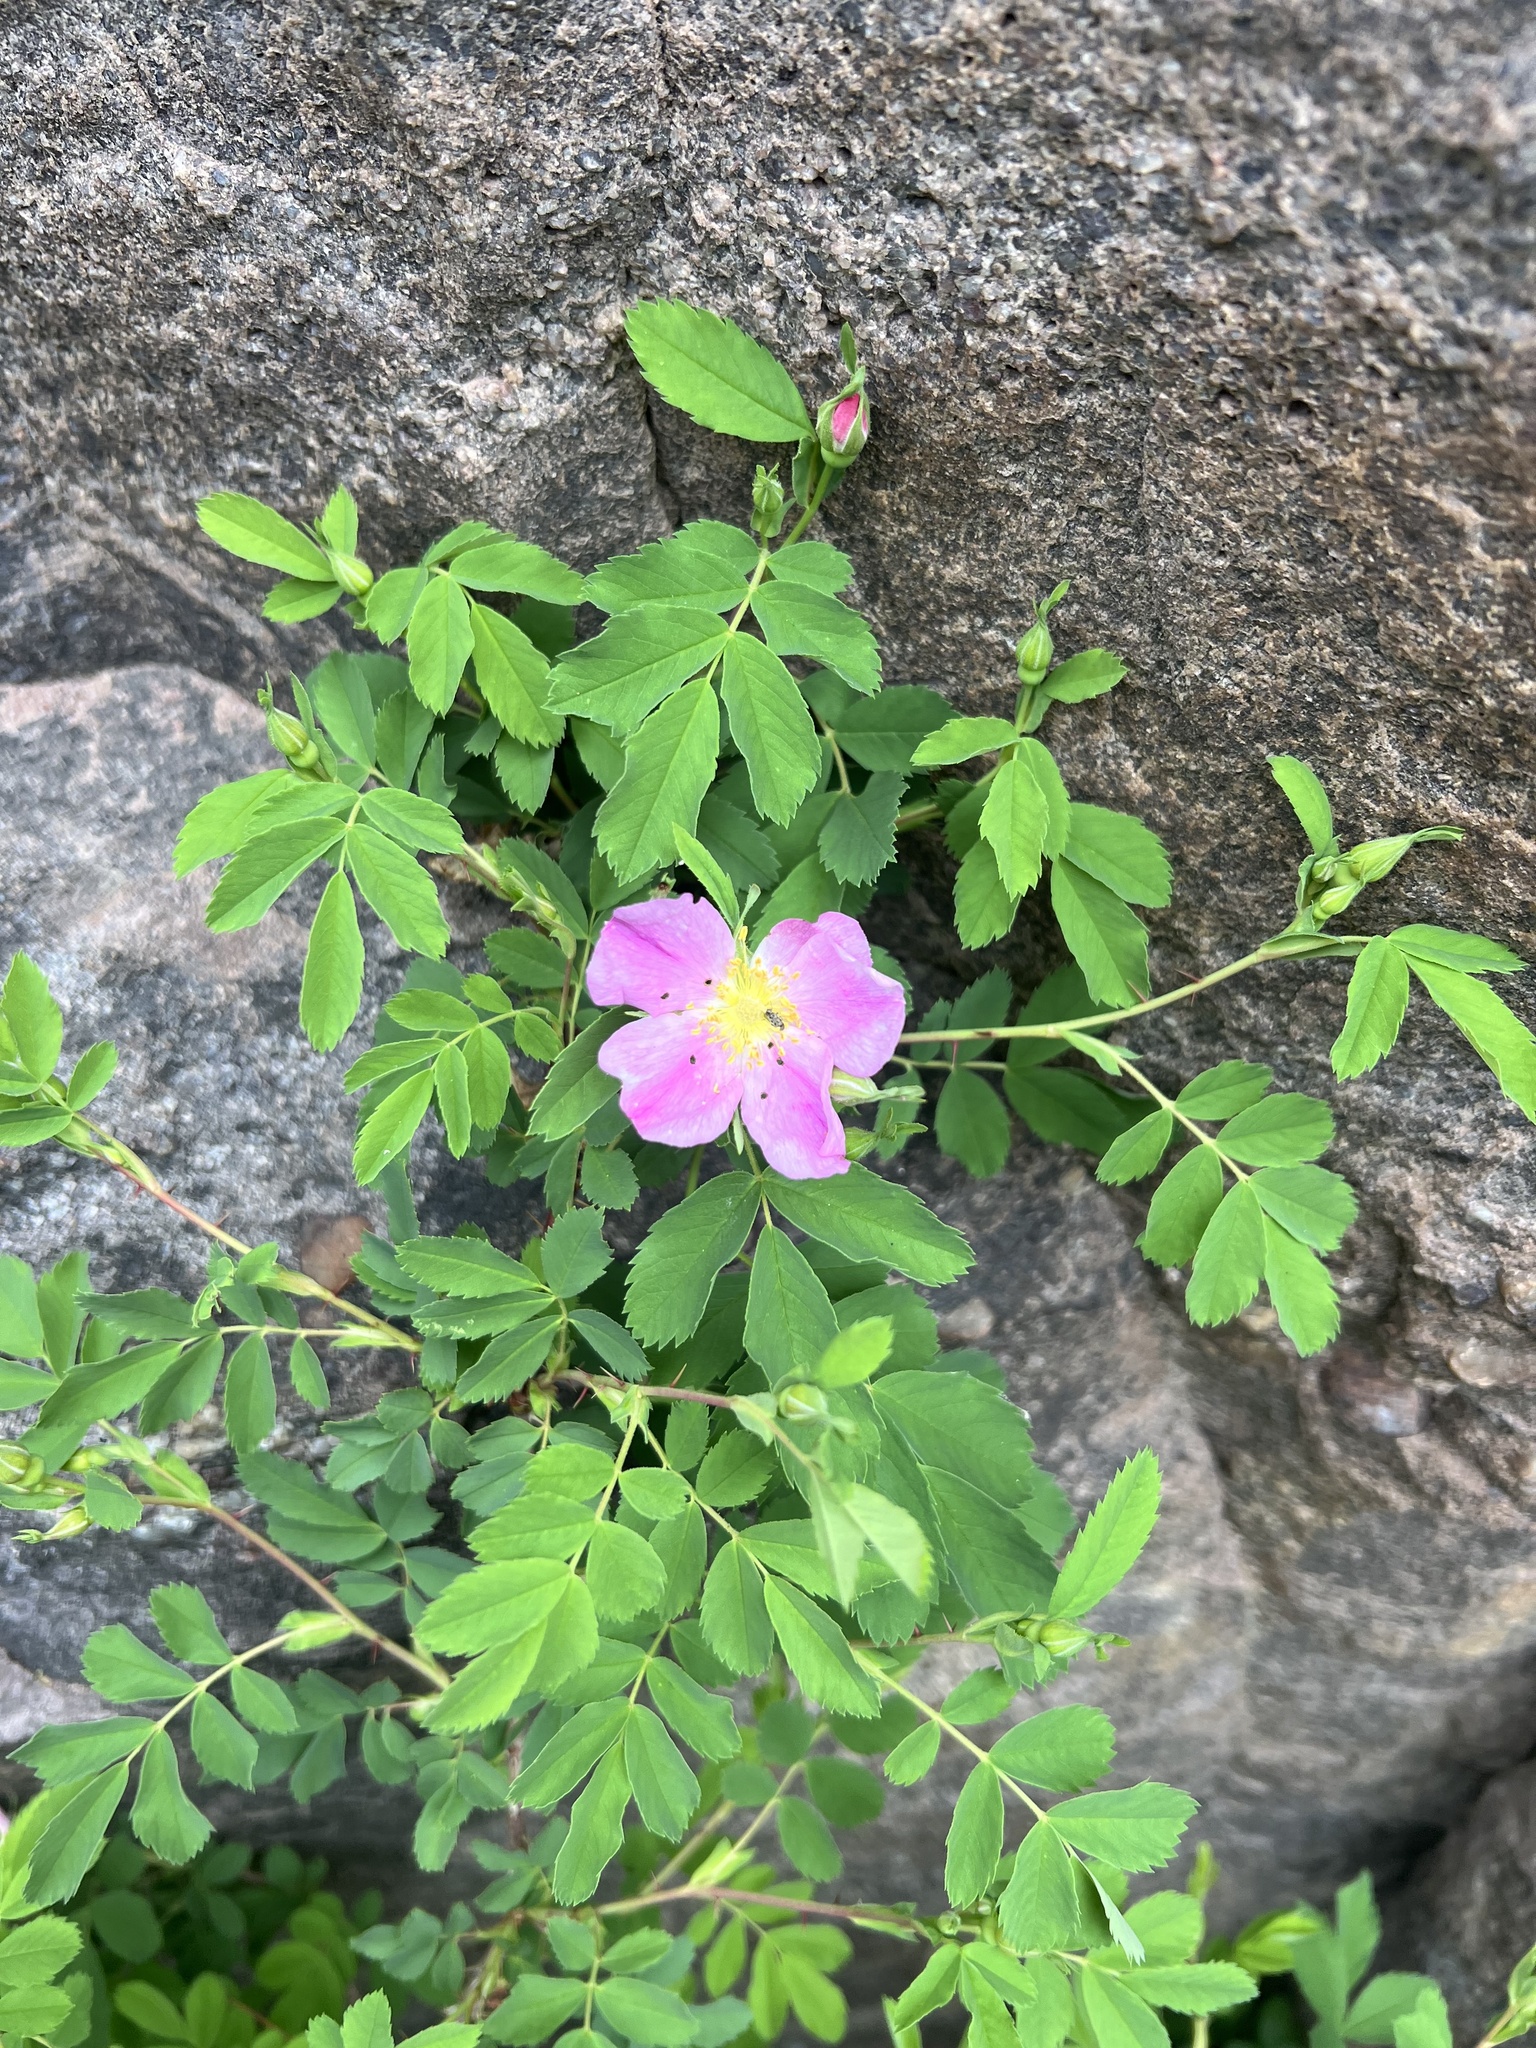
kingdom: Plantae
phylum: Tracheophyta
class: Magnoliopsida
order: Rosales
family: Rosaceae
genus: Rosa
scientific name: Rosa woodsii
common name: Woods's rose
